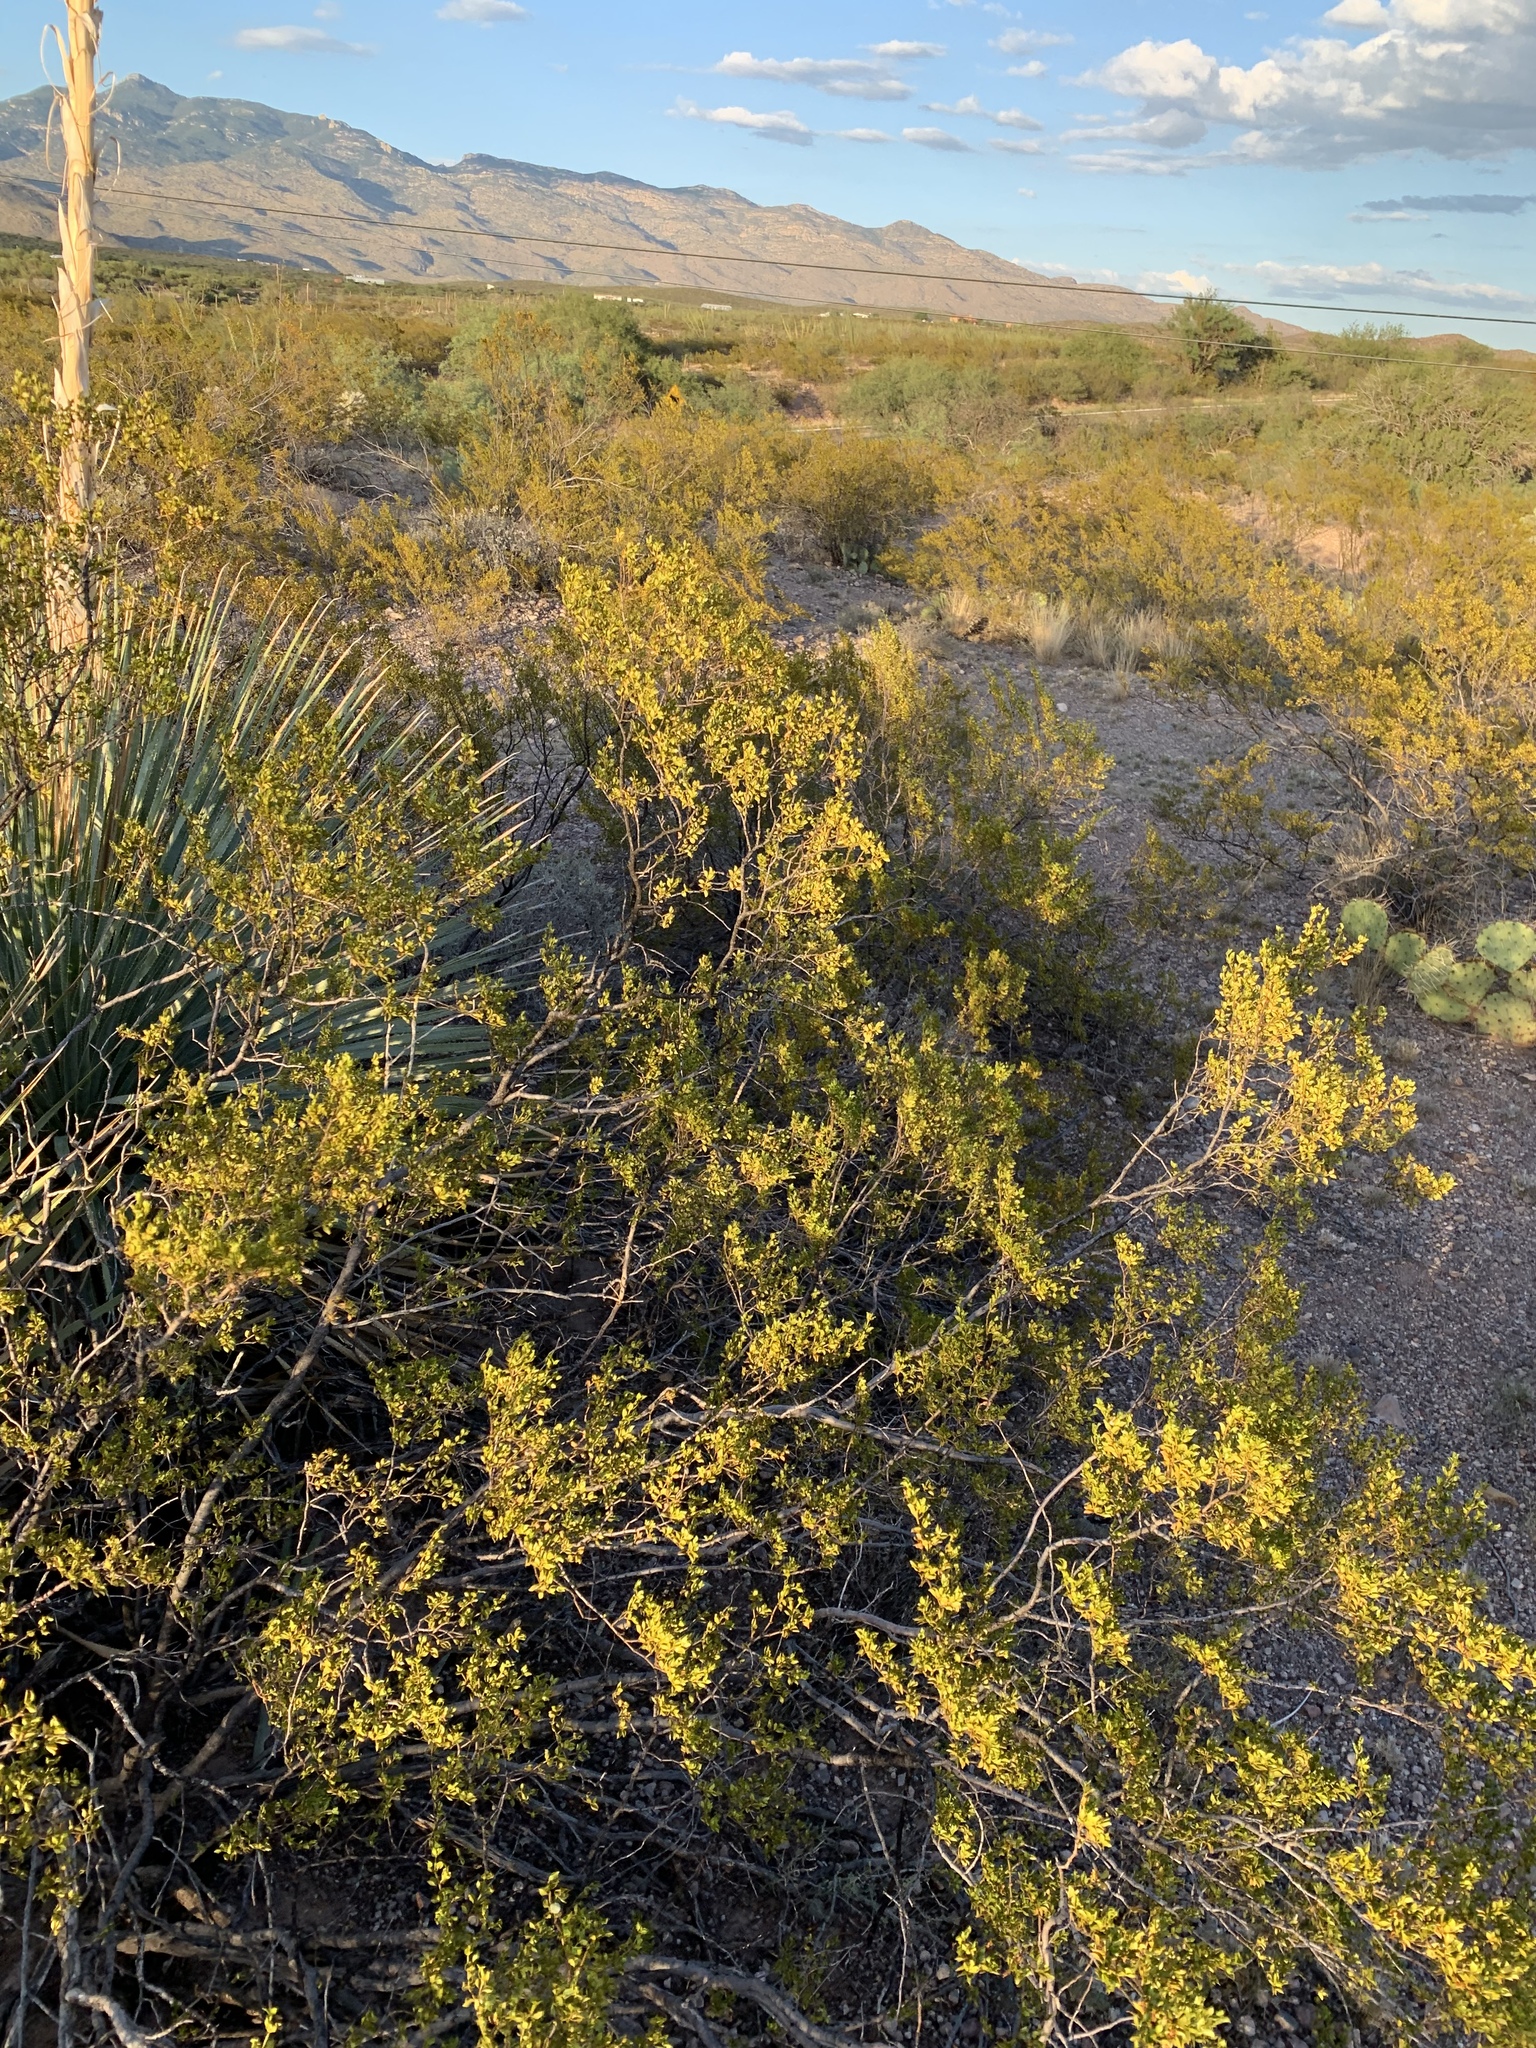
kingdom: Plantae
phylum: Tracheophyta
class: Magnoliopsida
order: Zygophyllales
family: Zygophyllaceae
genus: Larrea
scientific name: Larrea tridentata
